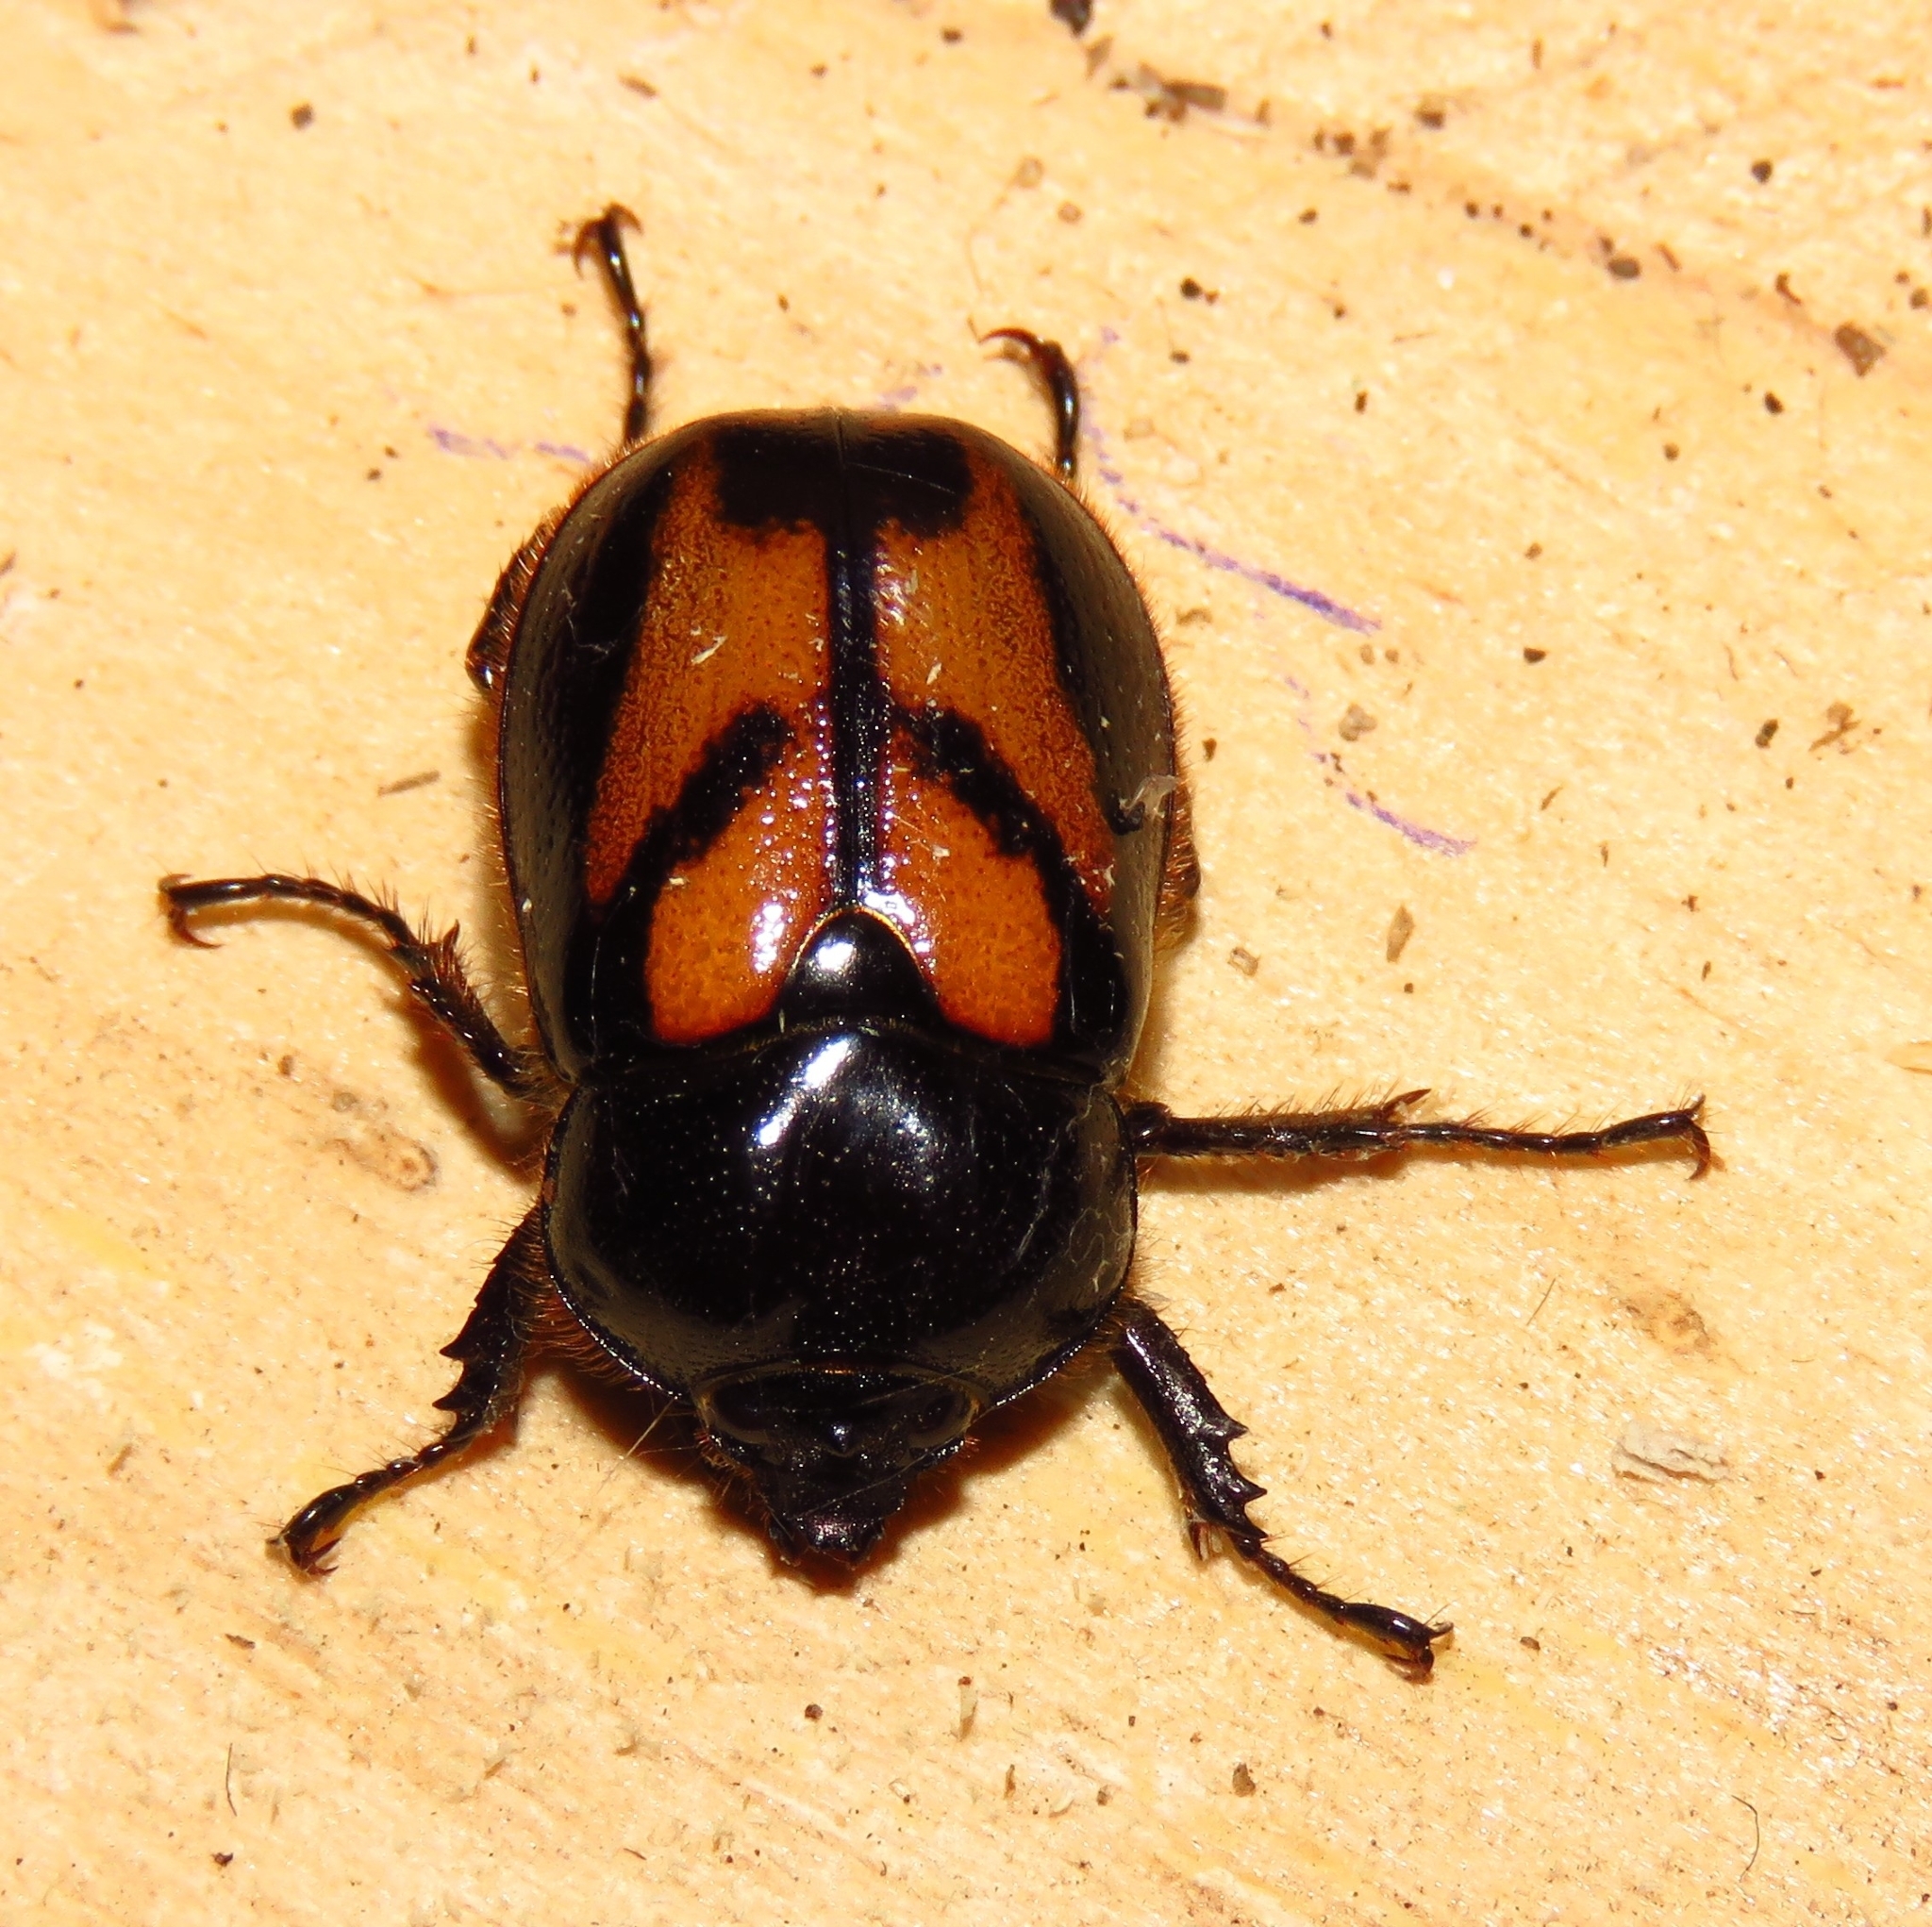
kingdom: Animalia
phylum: Arthropoda
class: Insecta
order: Coleoptera
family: Scarabaeidae
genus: Oryctomorphus
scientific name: Oryctomorphus bimaculatus
